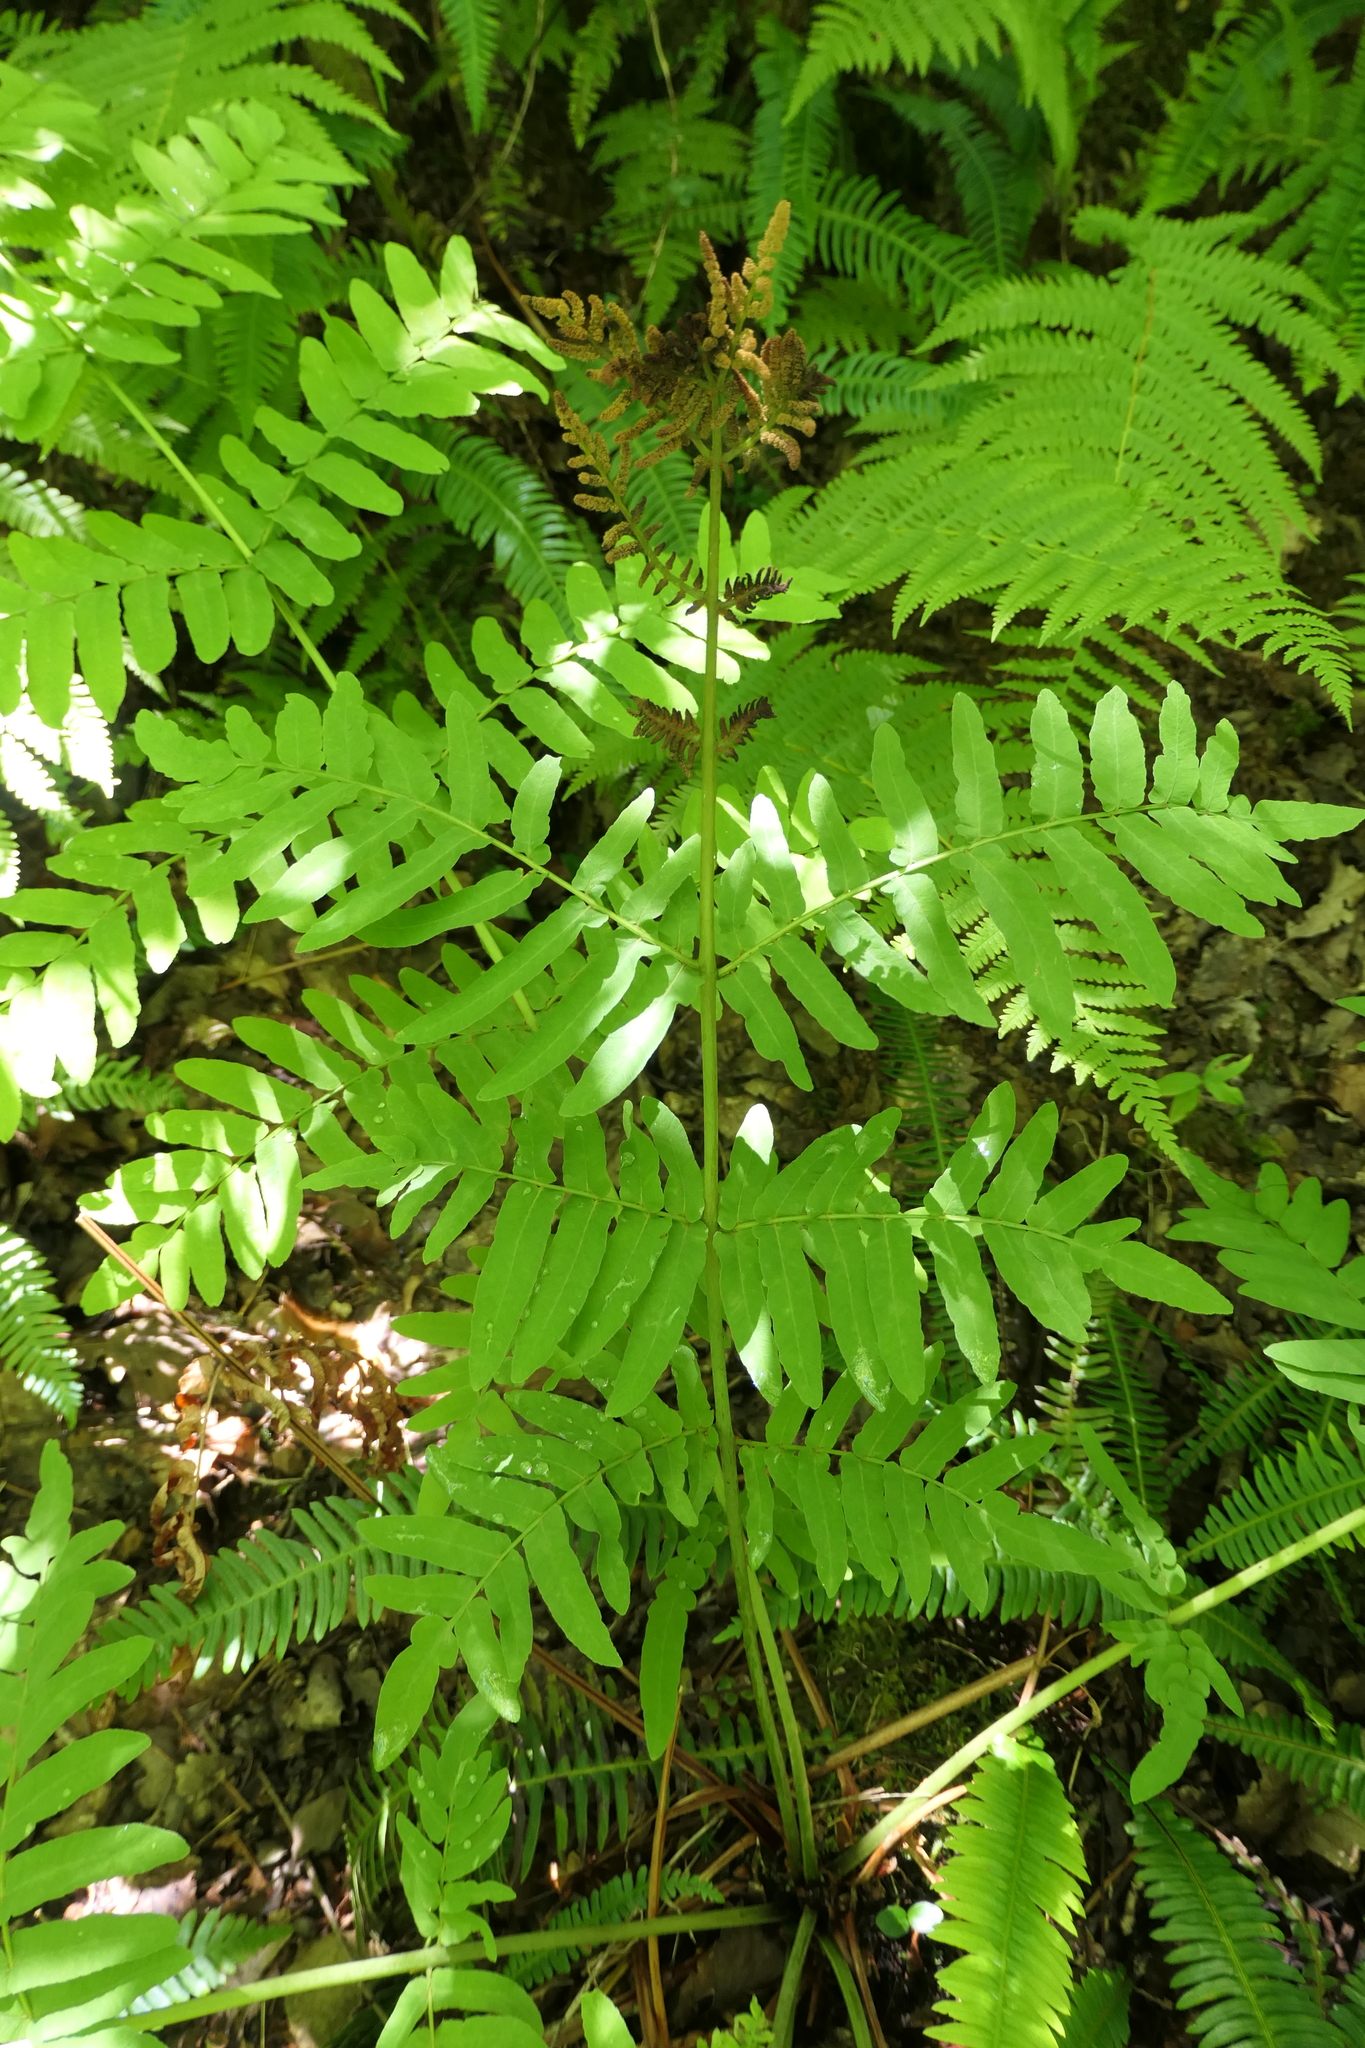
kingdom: Plantae
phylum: Tracheophyta
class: Polypodiopsida
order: Osmundales
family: Osmundaceae
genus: Osmunda
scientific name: Osmunda regalis
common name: Royal fern
